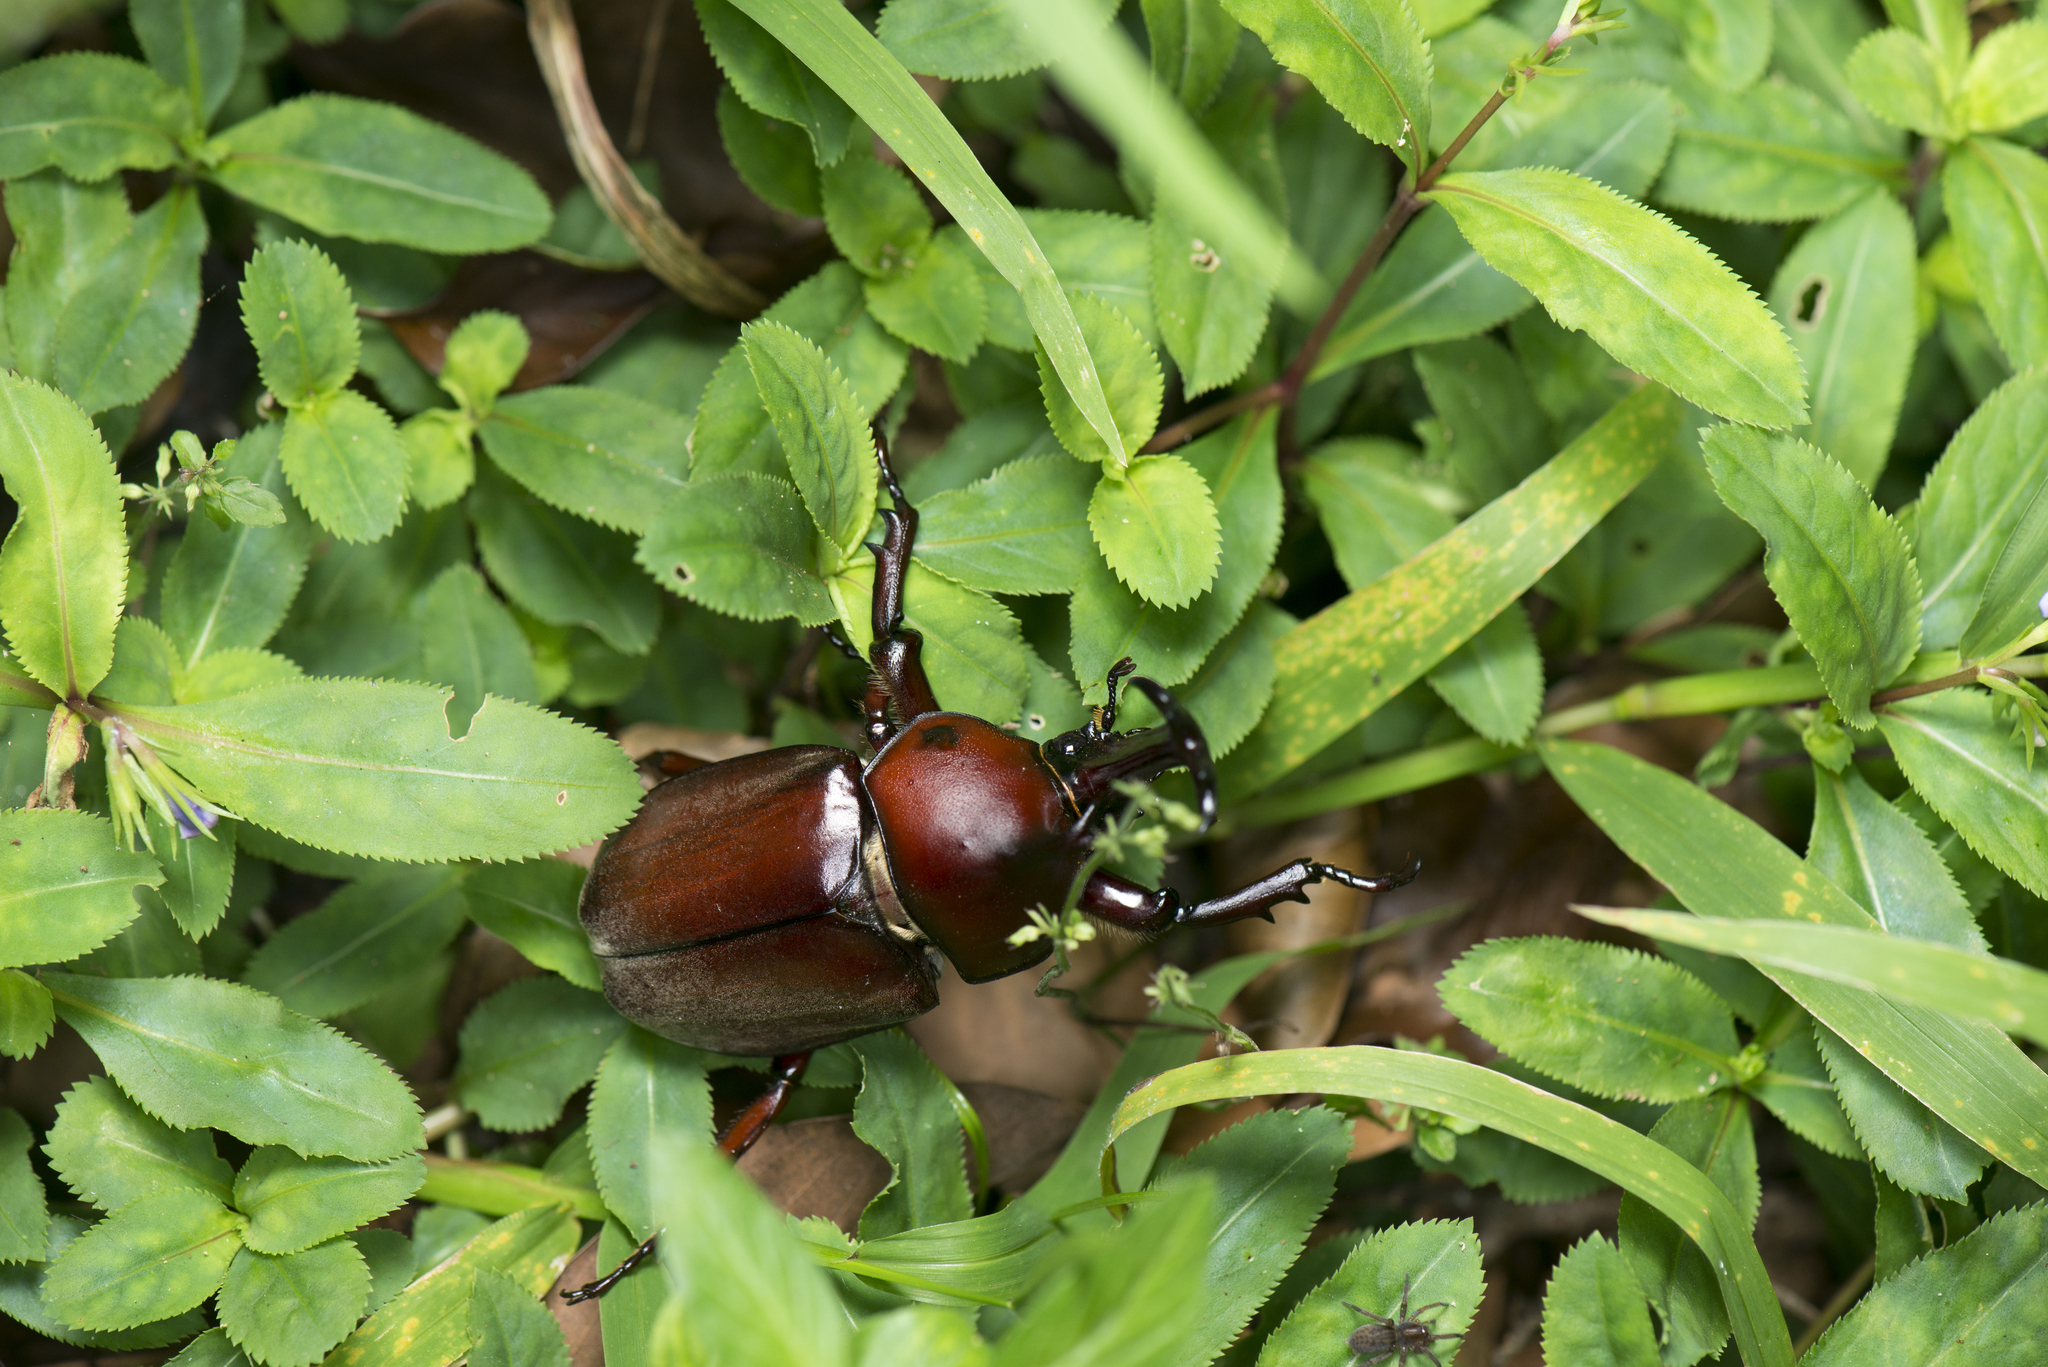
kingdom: Animalia
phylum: Arthropoda
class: Insecta
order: Coleoptera
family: Scarabaeidae
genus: Trypoxylus
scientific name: Trypoxylus dichotomus
